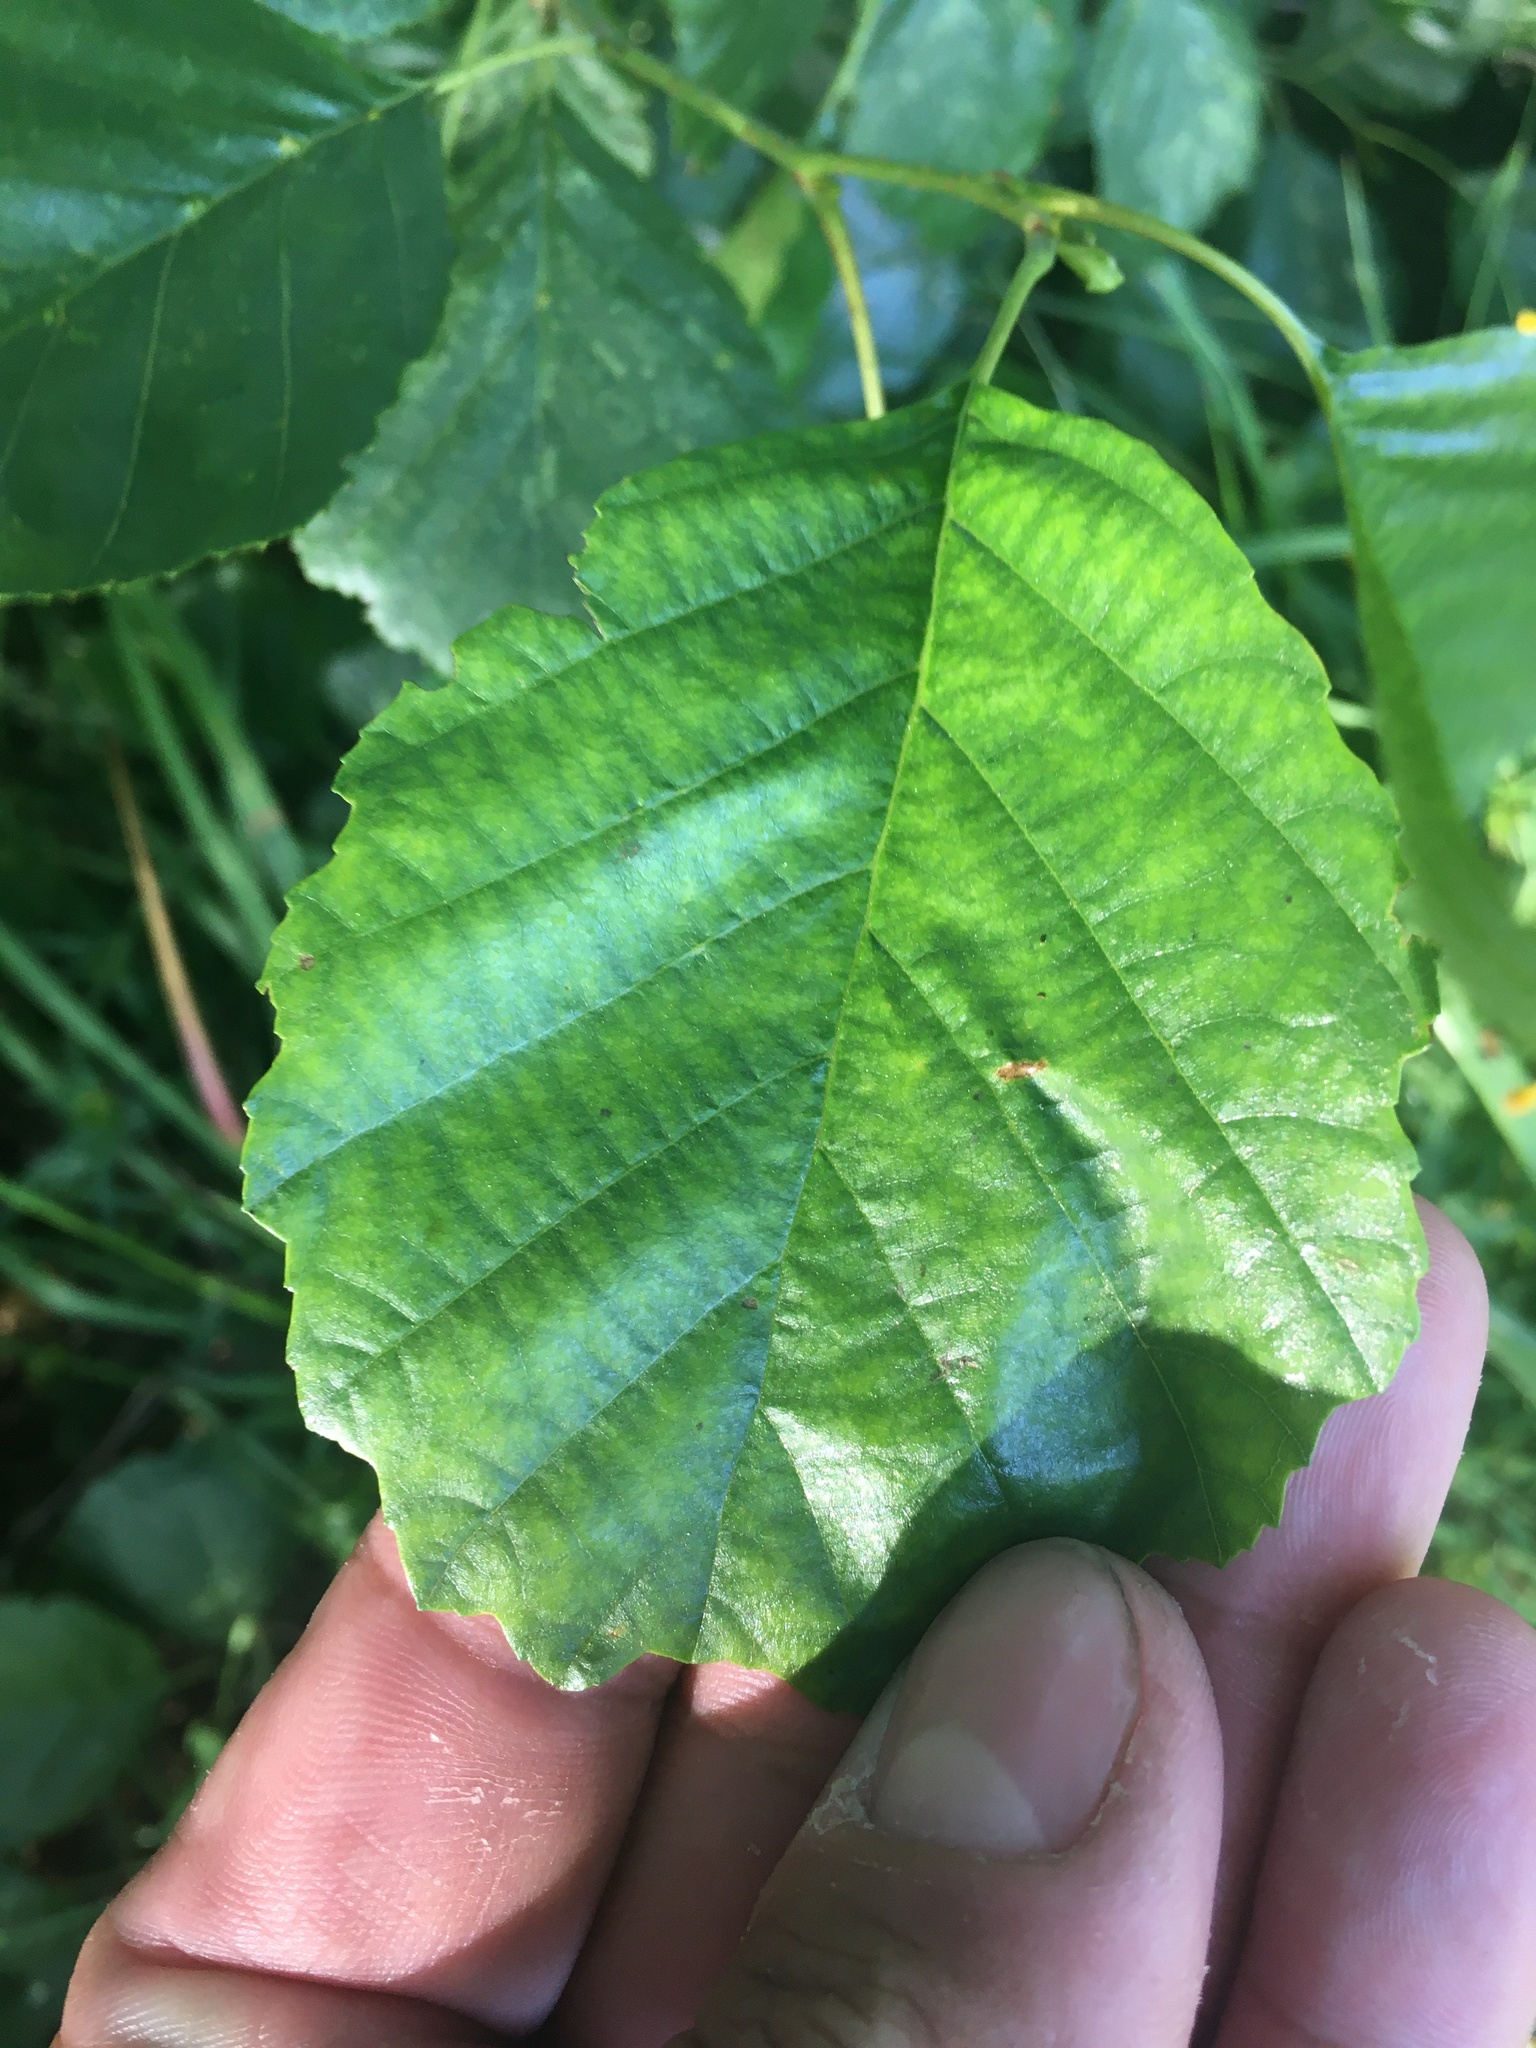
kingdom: Plantae
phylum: Tracheophyta
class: Magnoliopsida
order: Fagales
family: Betulaceae
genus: Alnus
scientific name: Alnus glutinosa
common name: Black alder
